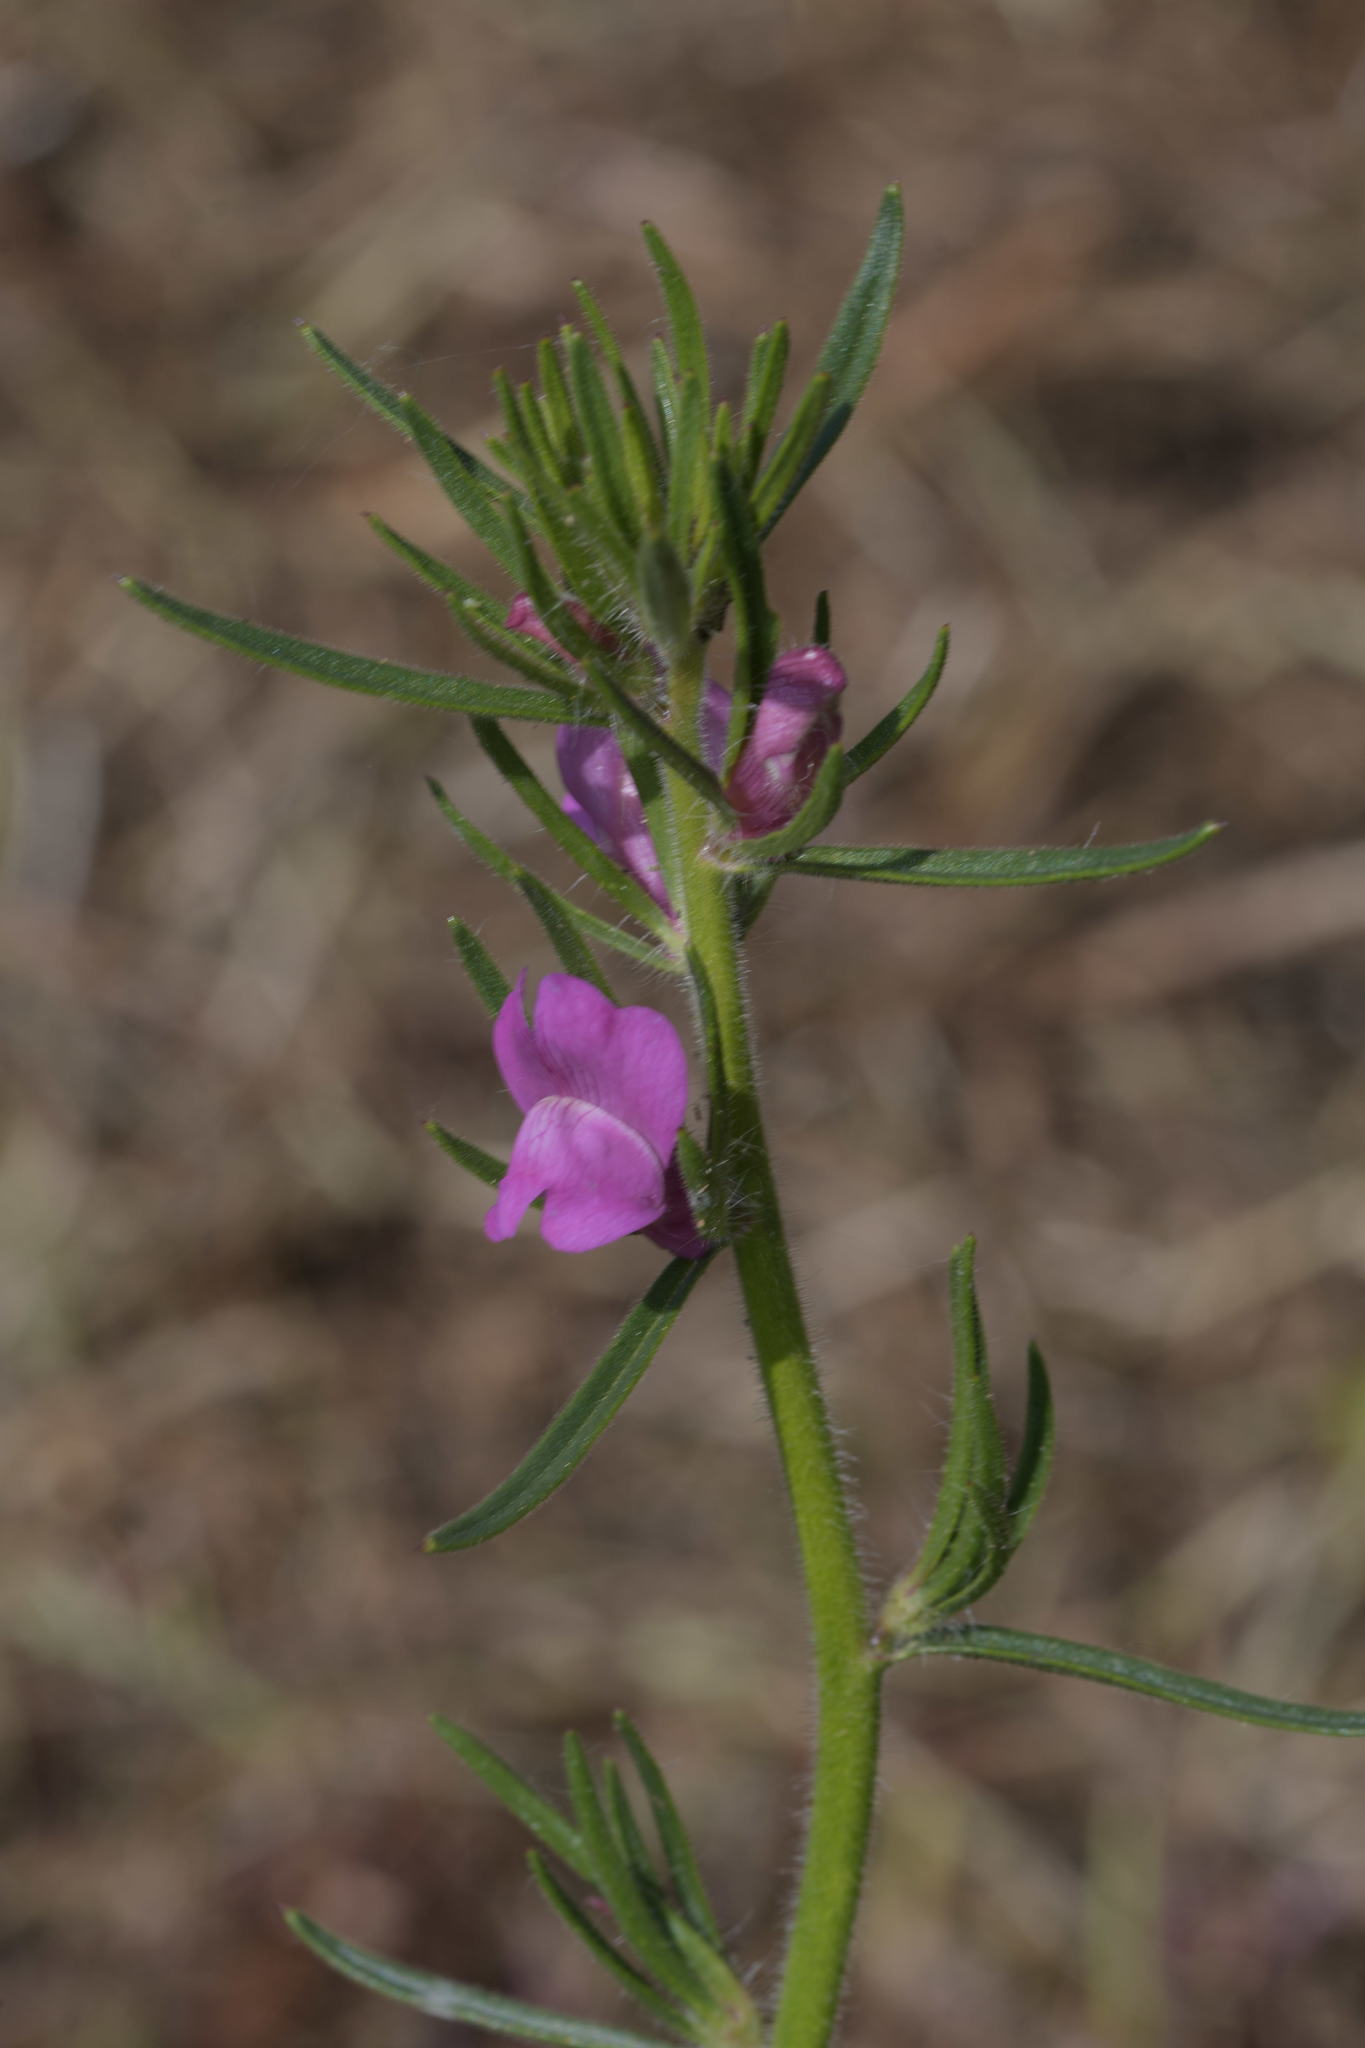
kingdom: Plantae
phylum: Tracheophyta
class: Magnoliopsida
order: Lamiales
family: Plantaginaceae
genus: Misopates
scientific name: Misopates orontium
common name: Weasel's-snout
